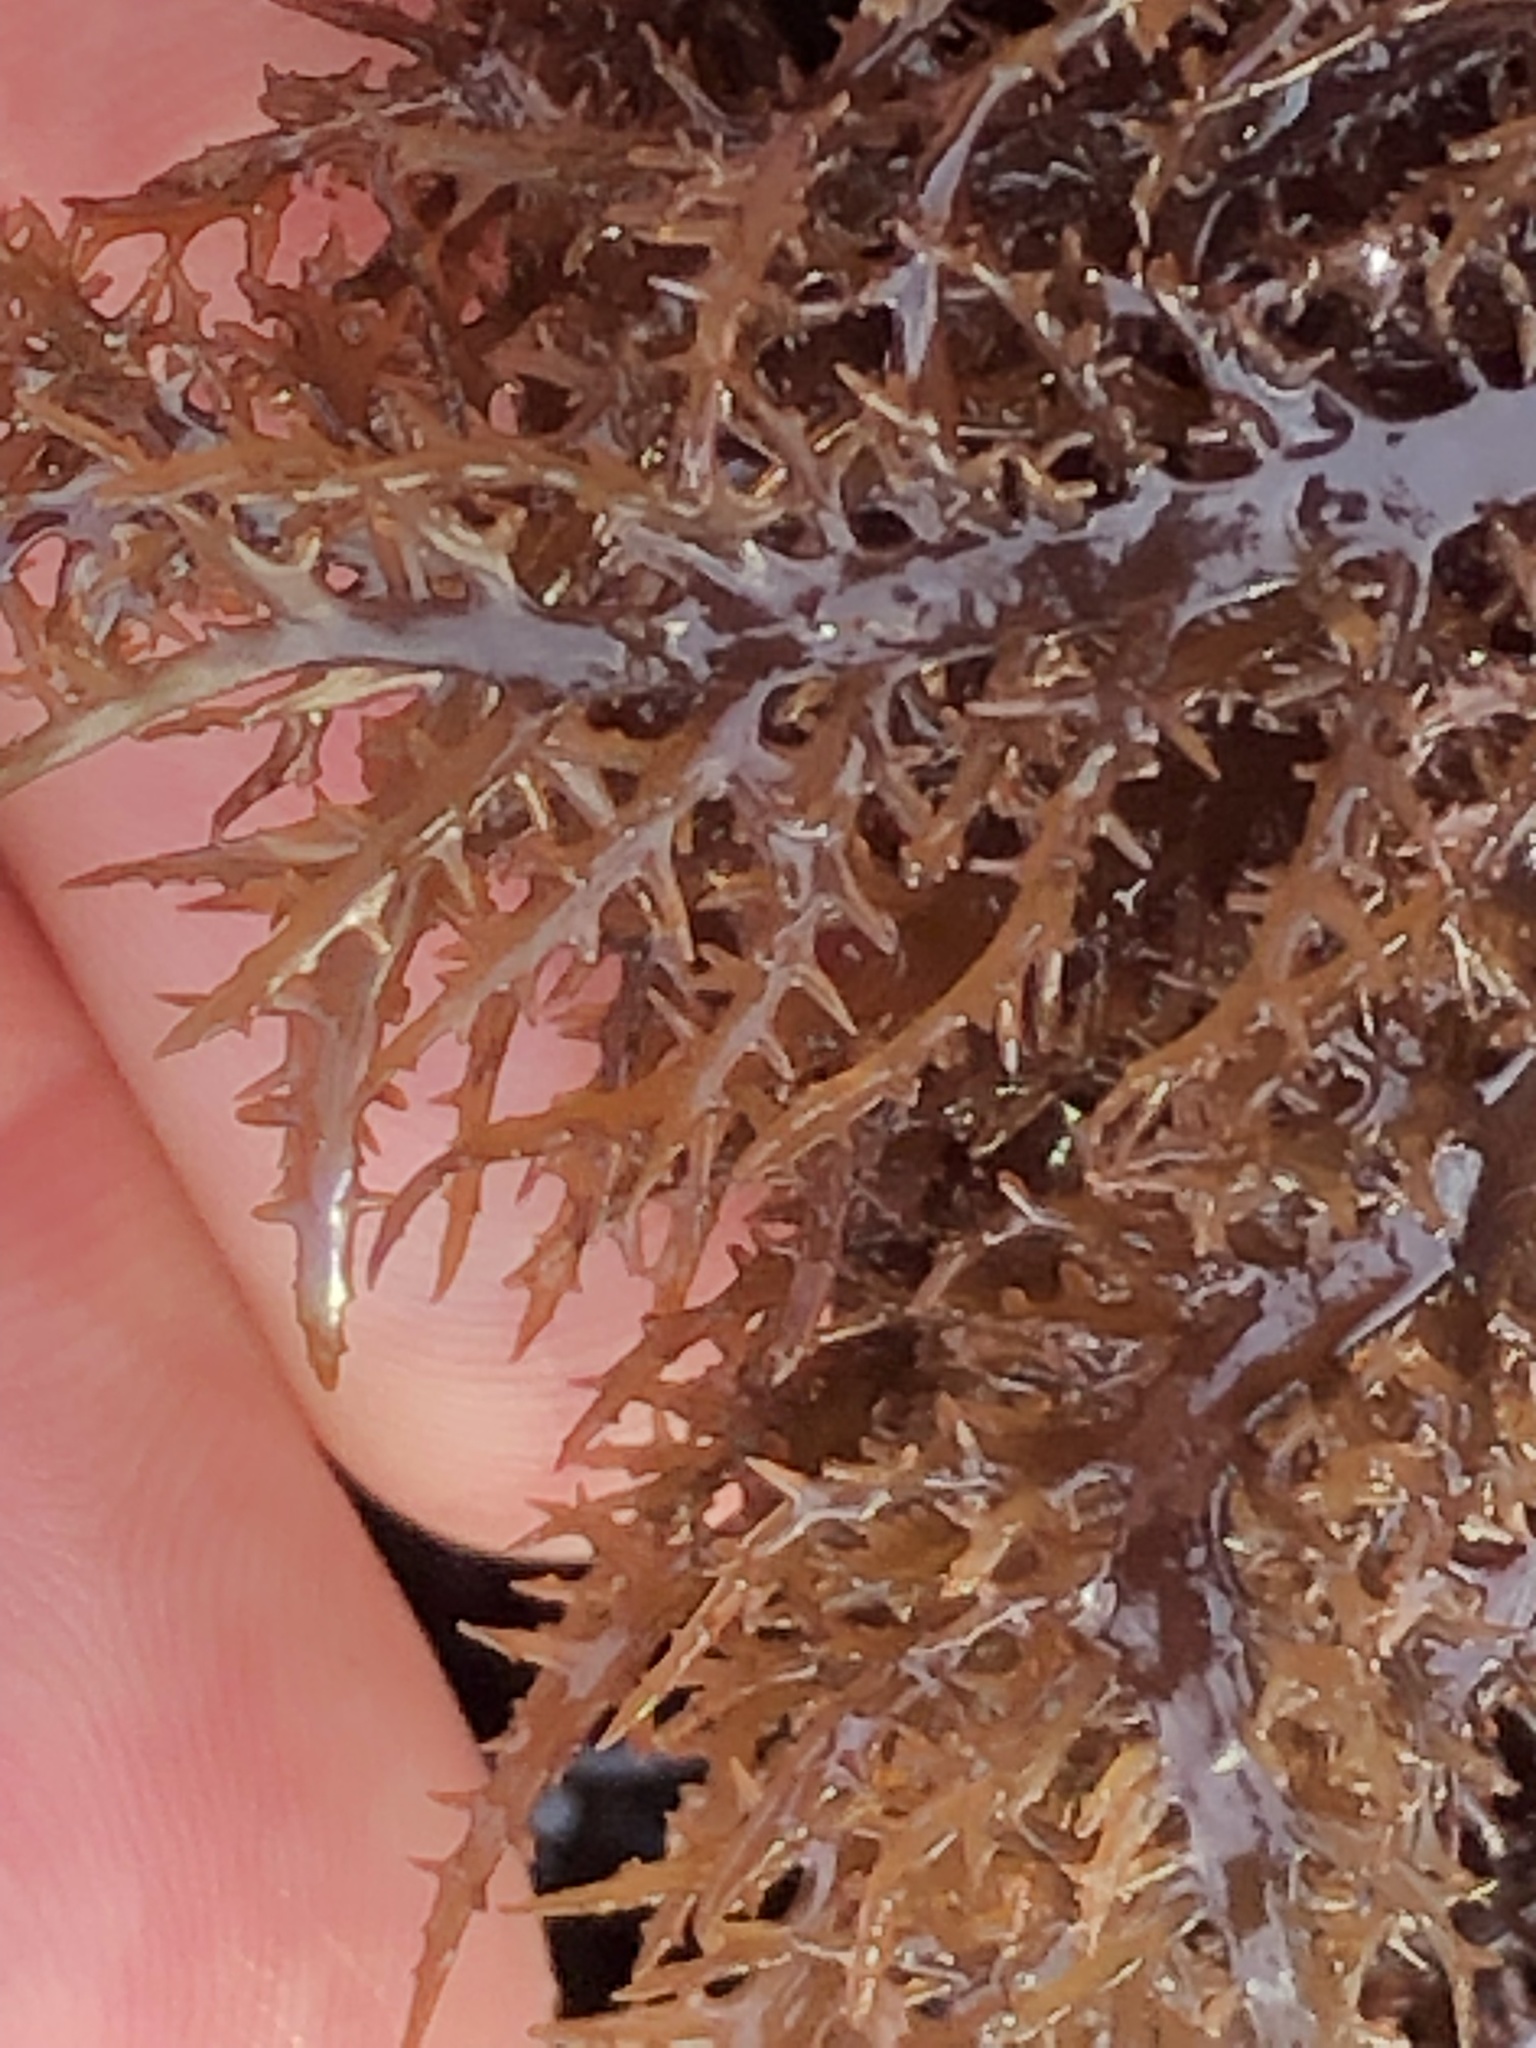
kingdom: Plantae
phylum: Rhodophyta
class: Florideophyceae
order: Gigartinales
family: Gigartinaceae
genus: Chondracanthus
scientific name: Chondracanthus canaliculatus
